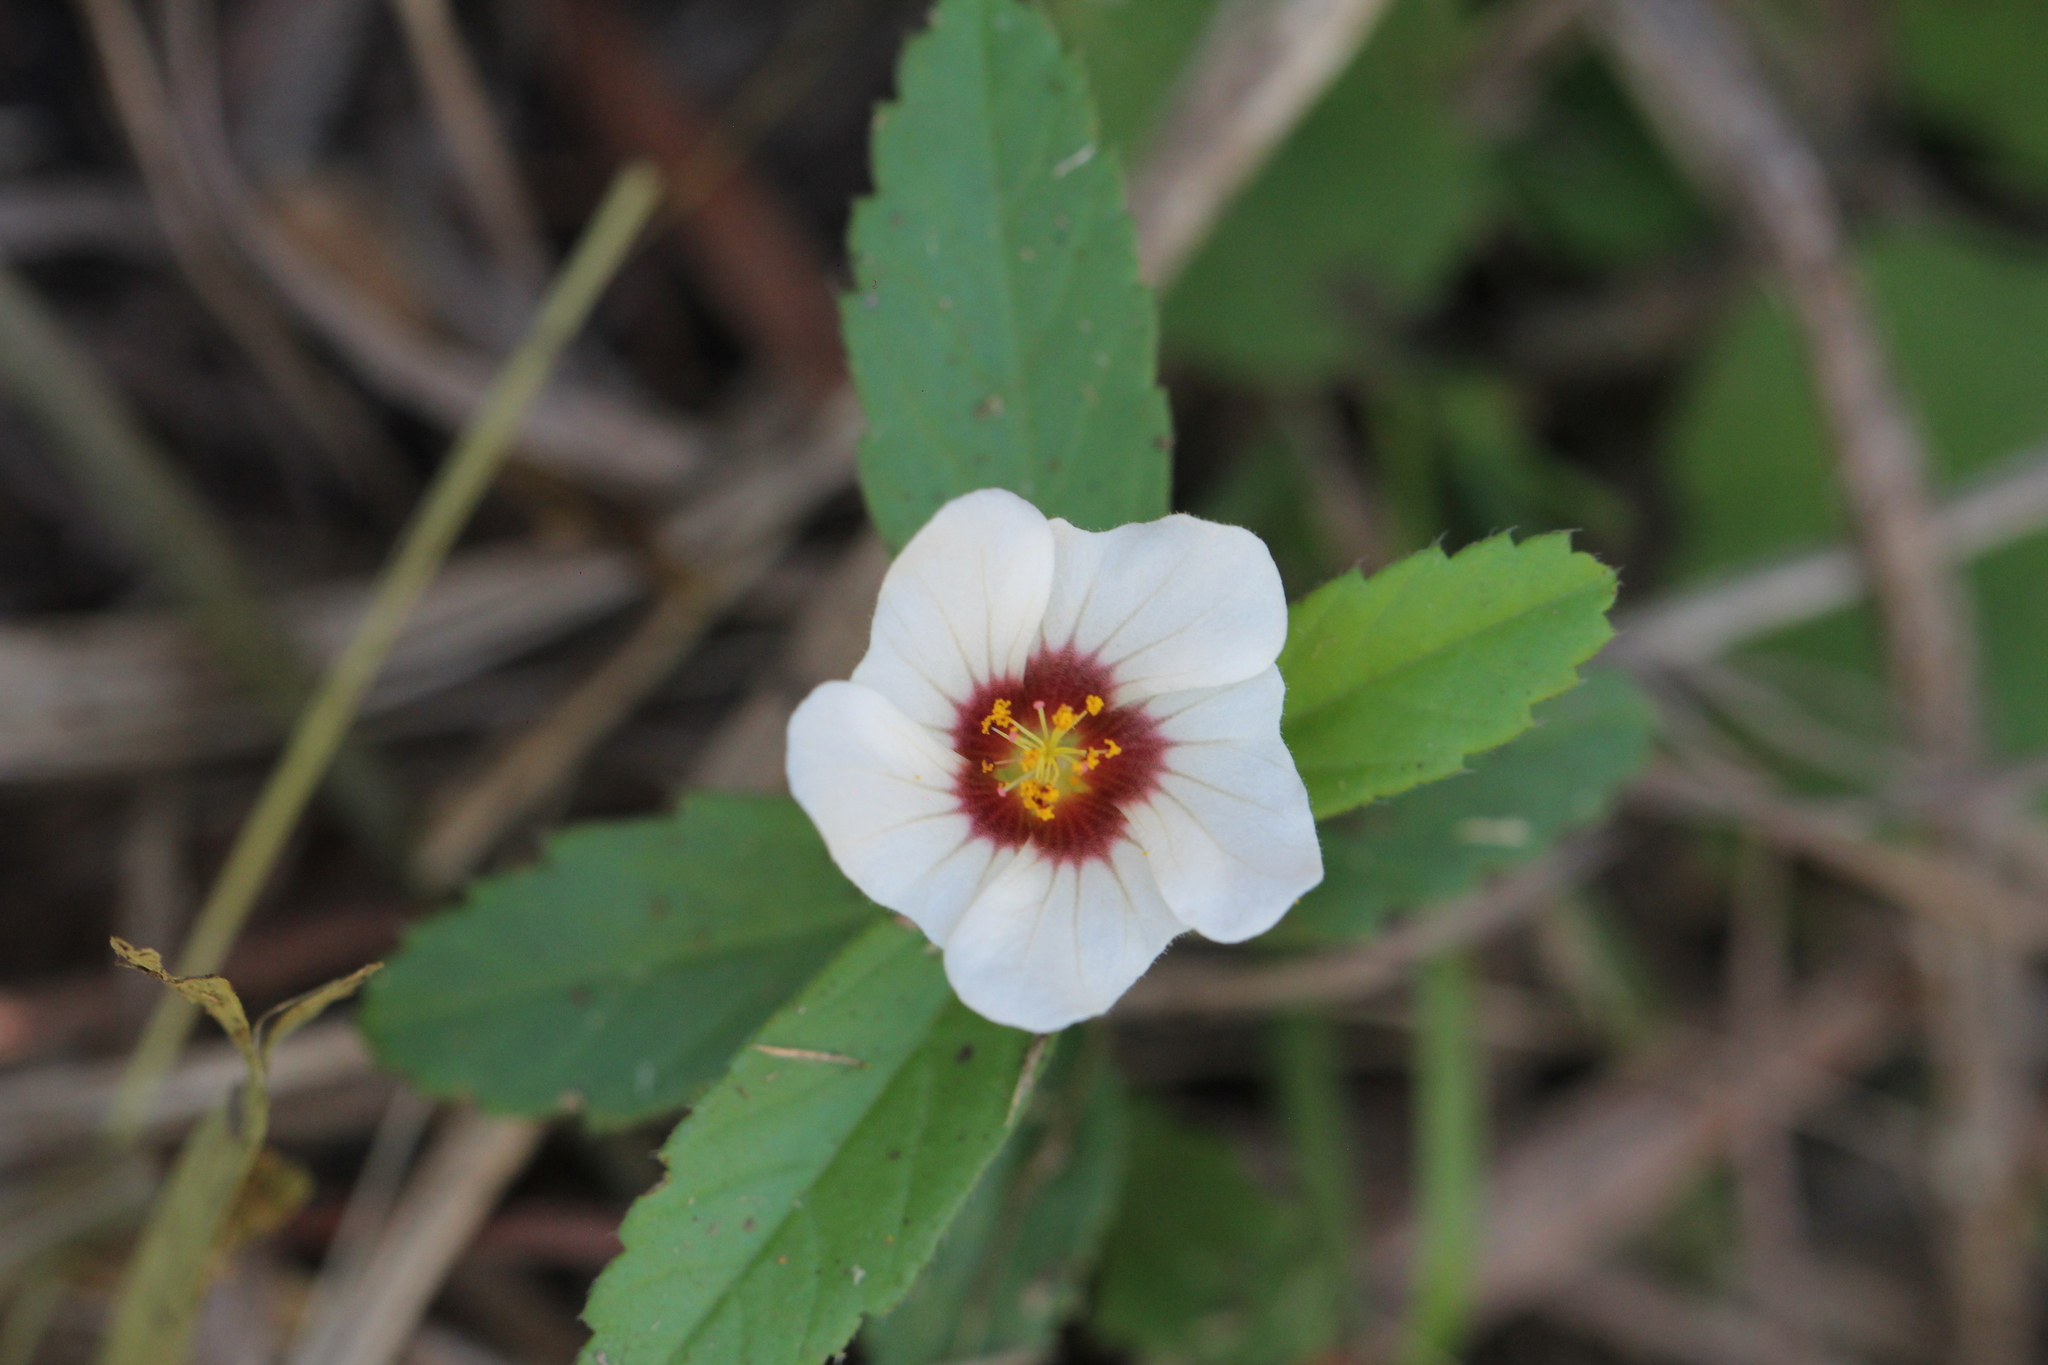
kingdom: Plantae
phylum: Tracheophyta
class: Magnoliopsida
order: Malvales
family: Malvaceae
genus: Sida
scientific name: Sida viarum
